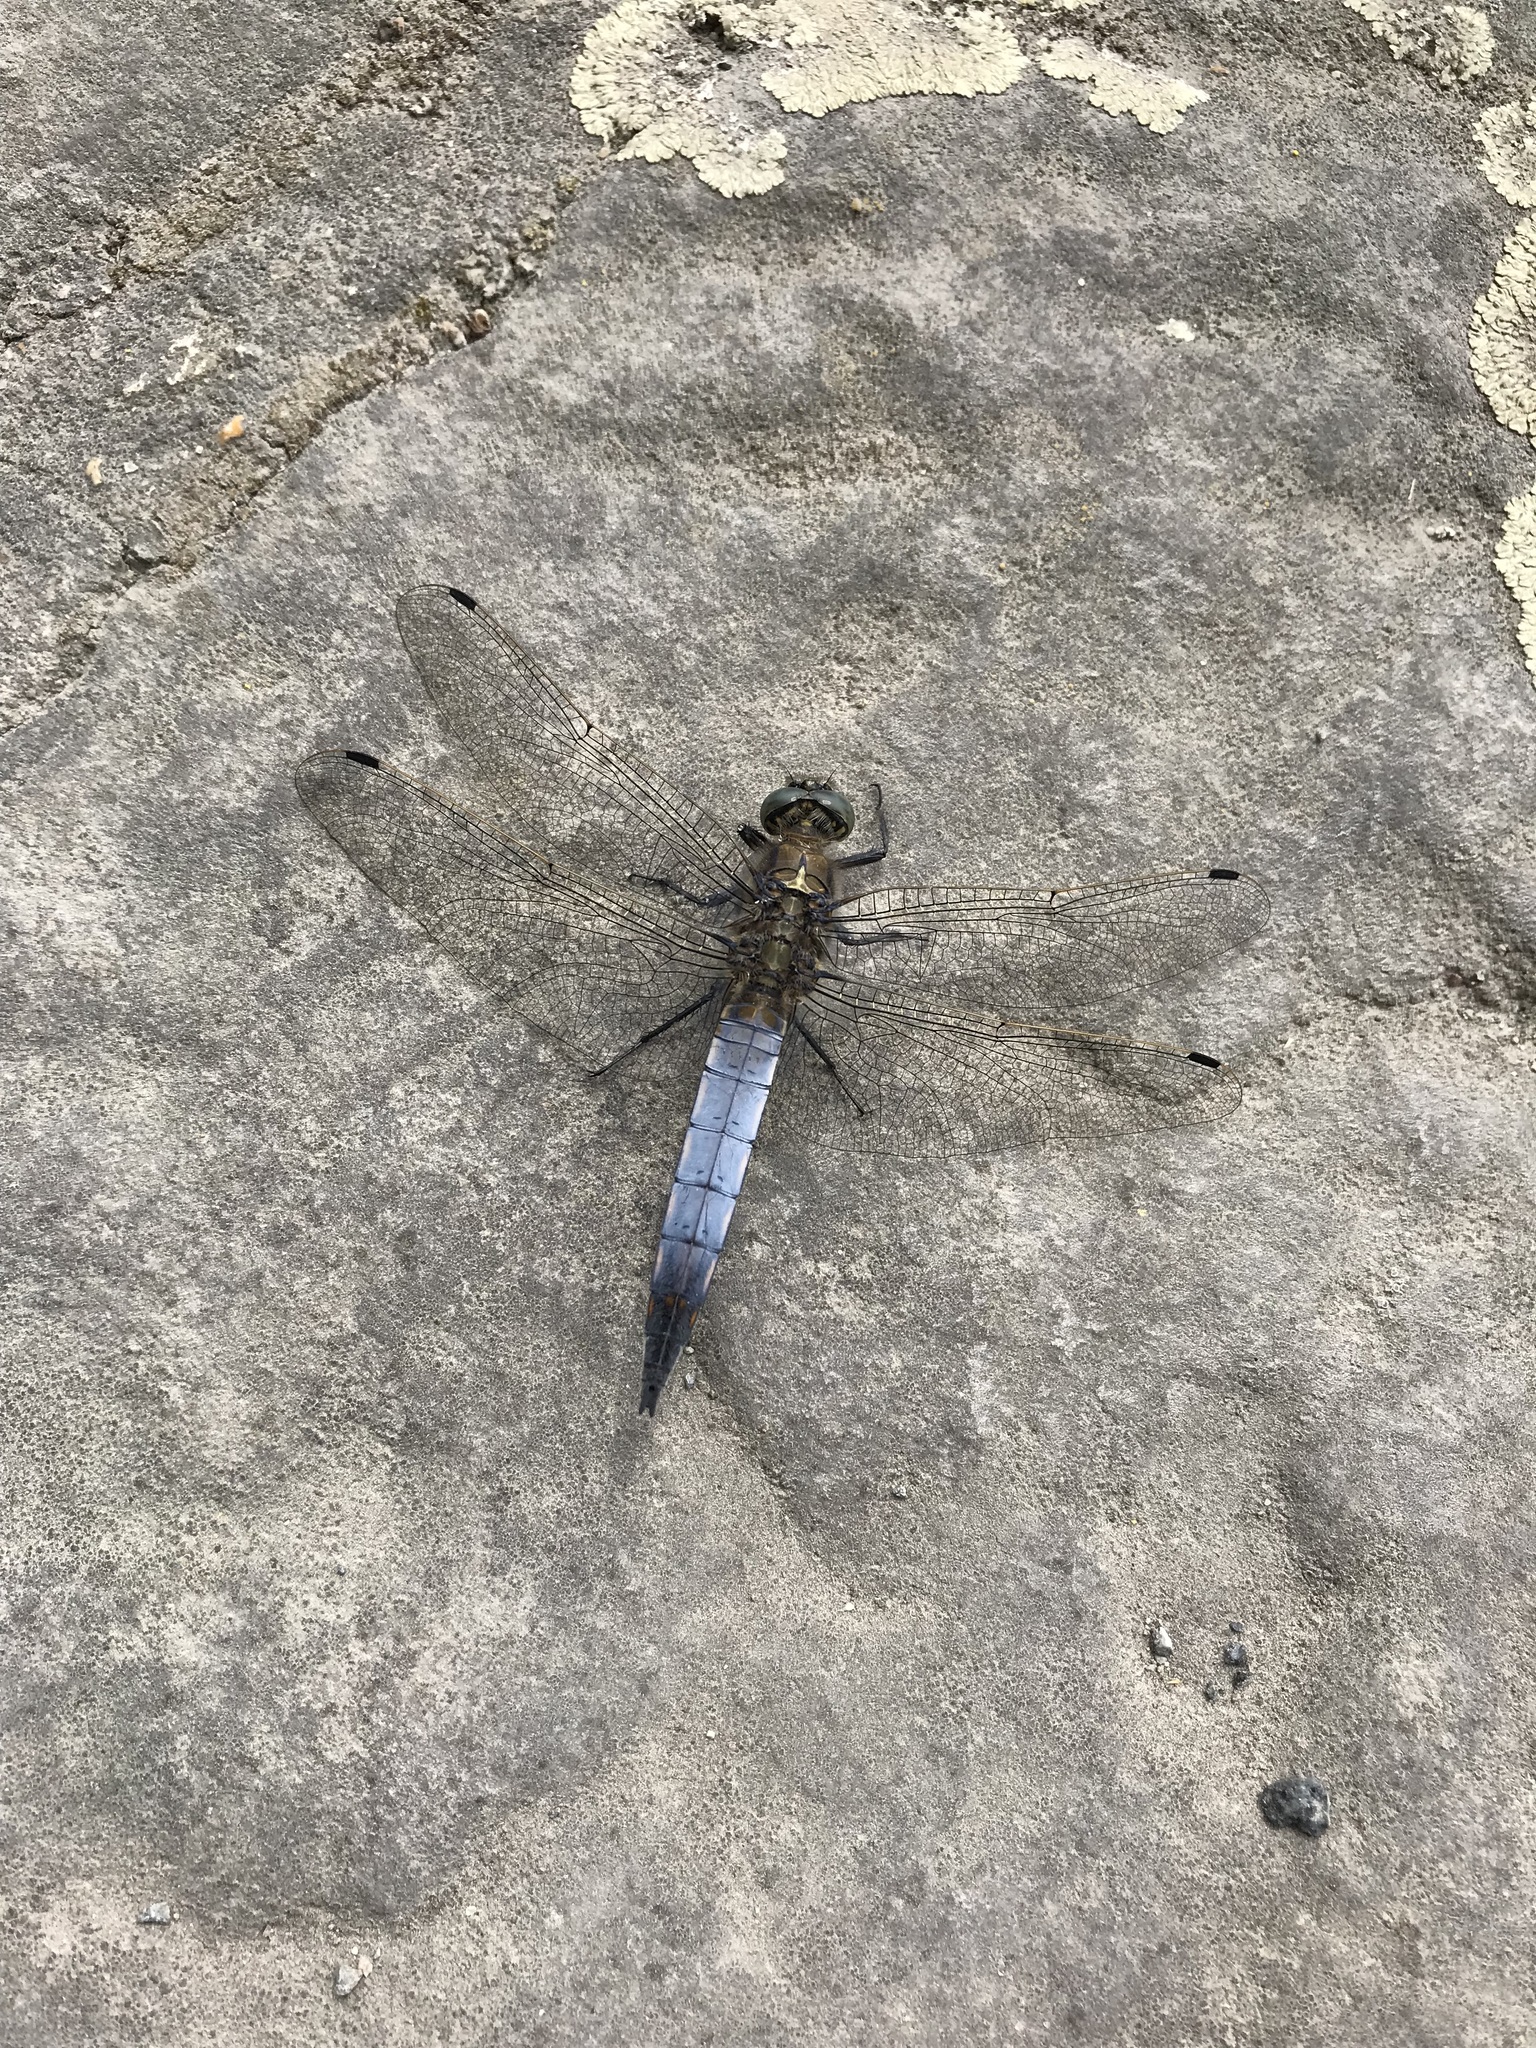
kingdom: Animalia
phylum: Arthropoda
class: Insecta
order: Odonata
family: Libellulidae
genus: Orthetrum
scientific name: Orthetrum cancellatum
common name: Black-tailed skimmer
